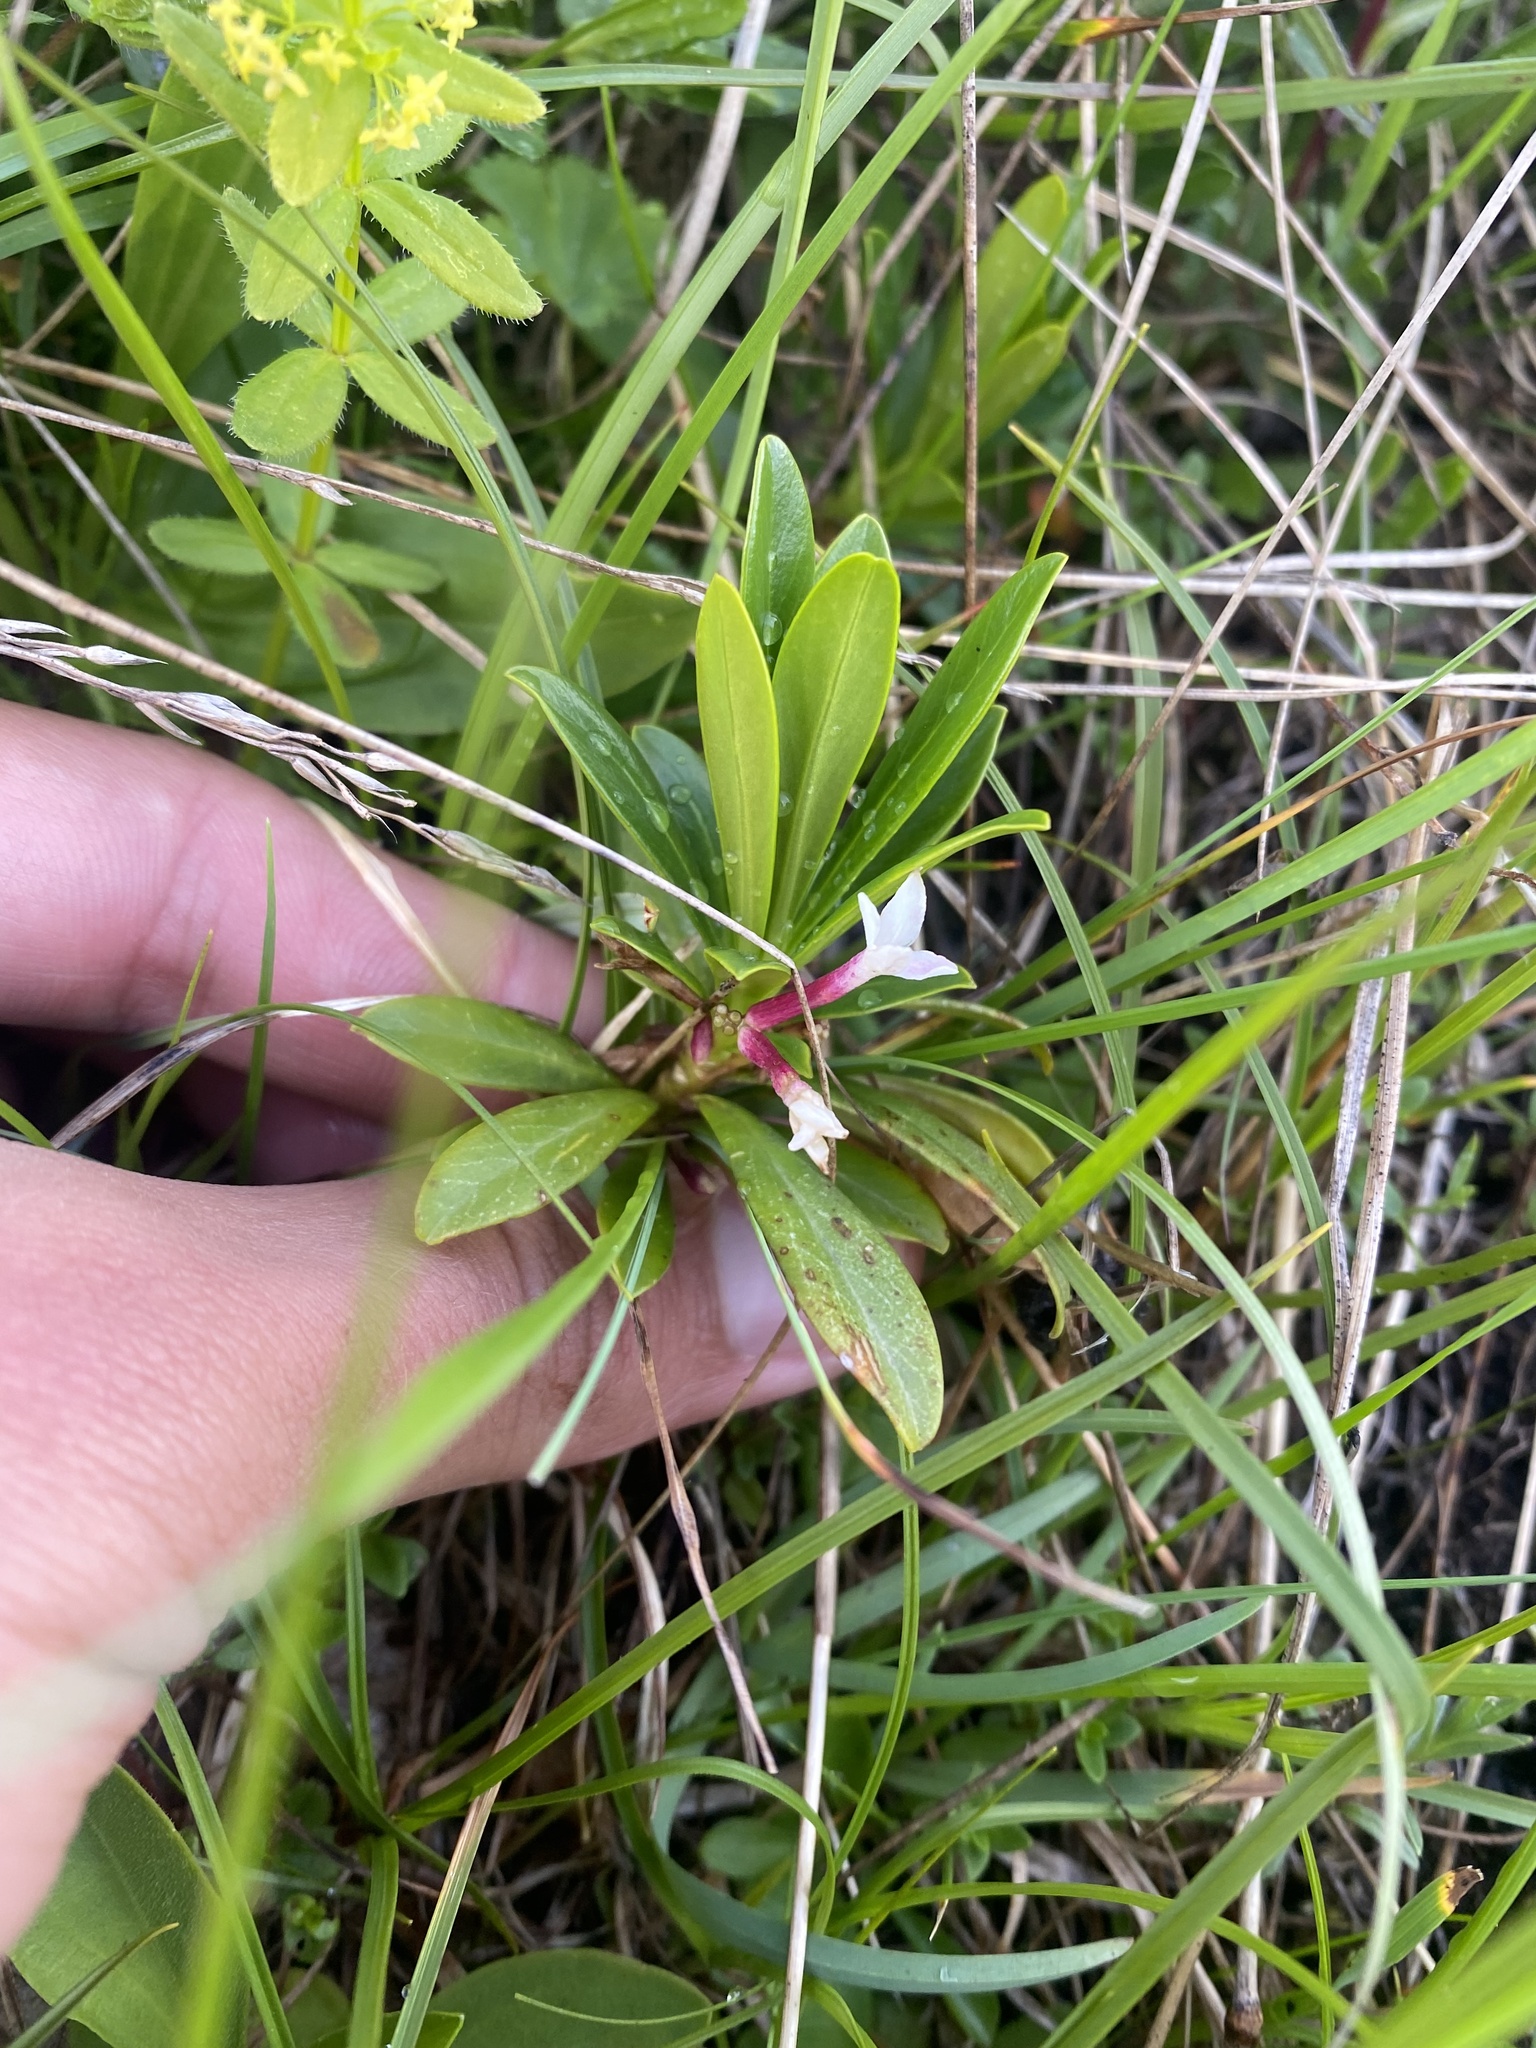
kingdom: Plantae
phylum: Tracheophyta
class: Magnoliopsida
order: Malvales
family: Thymelaeaceae
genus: Daphne
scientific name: Daphne glomerata
